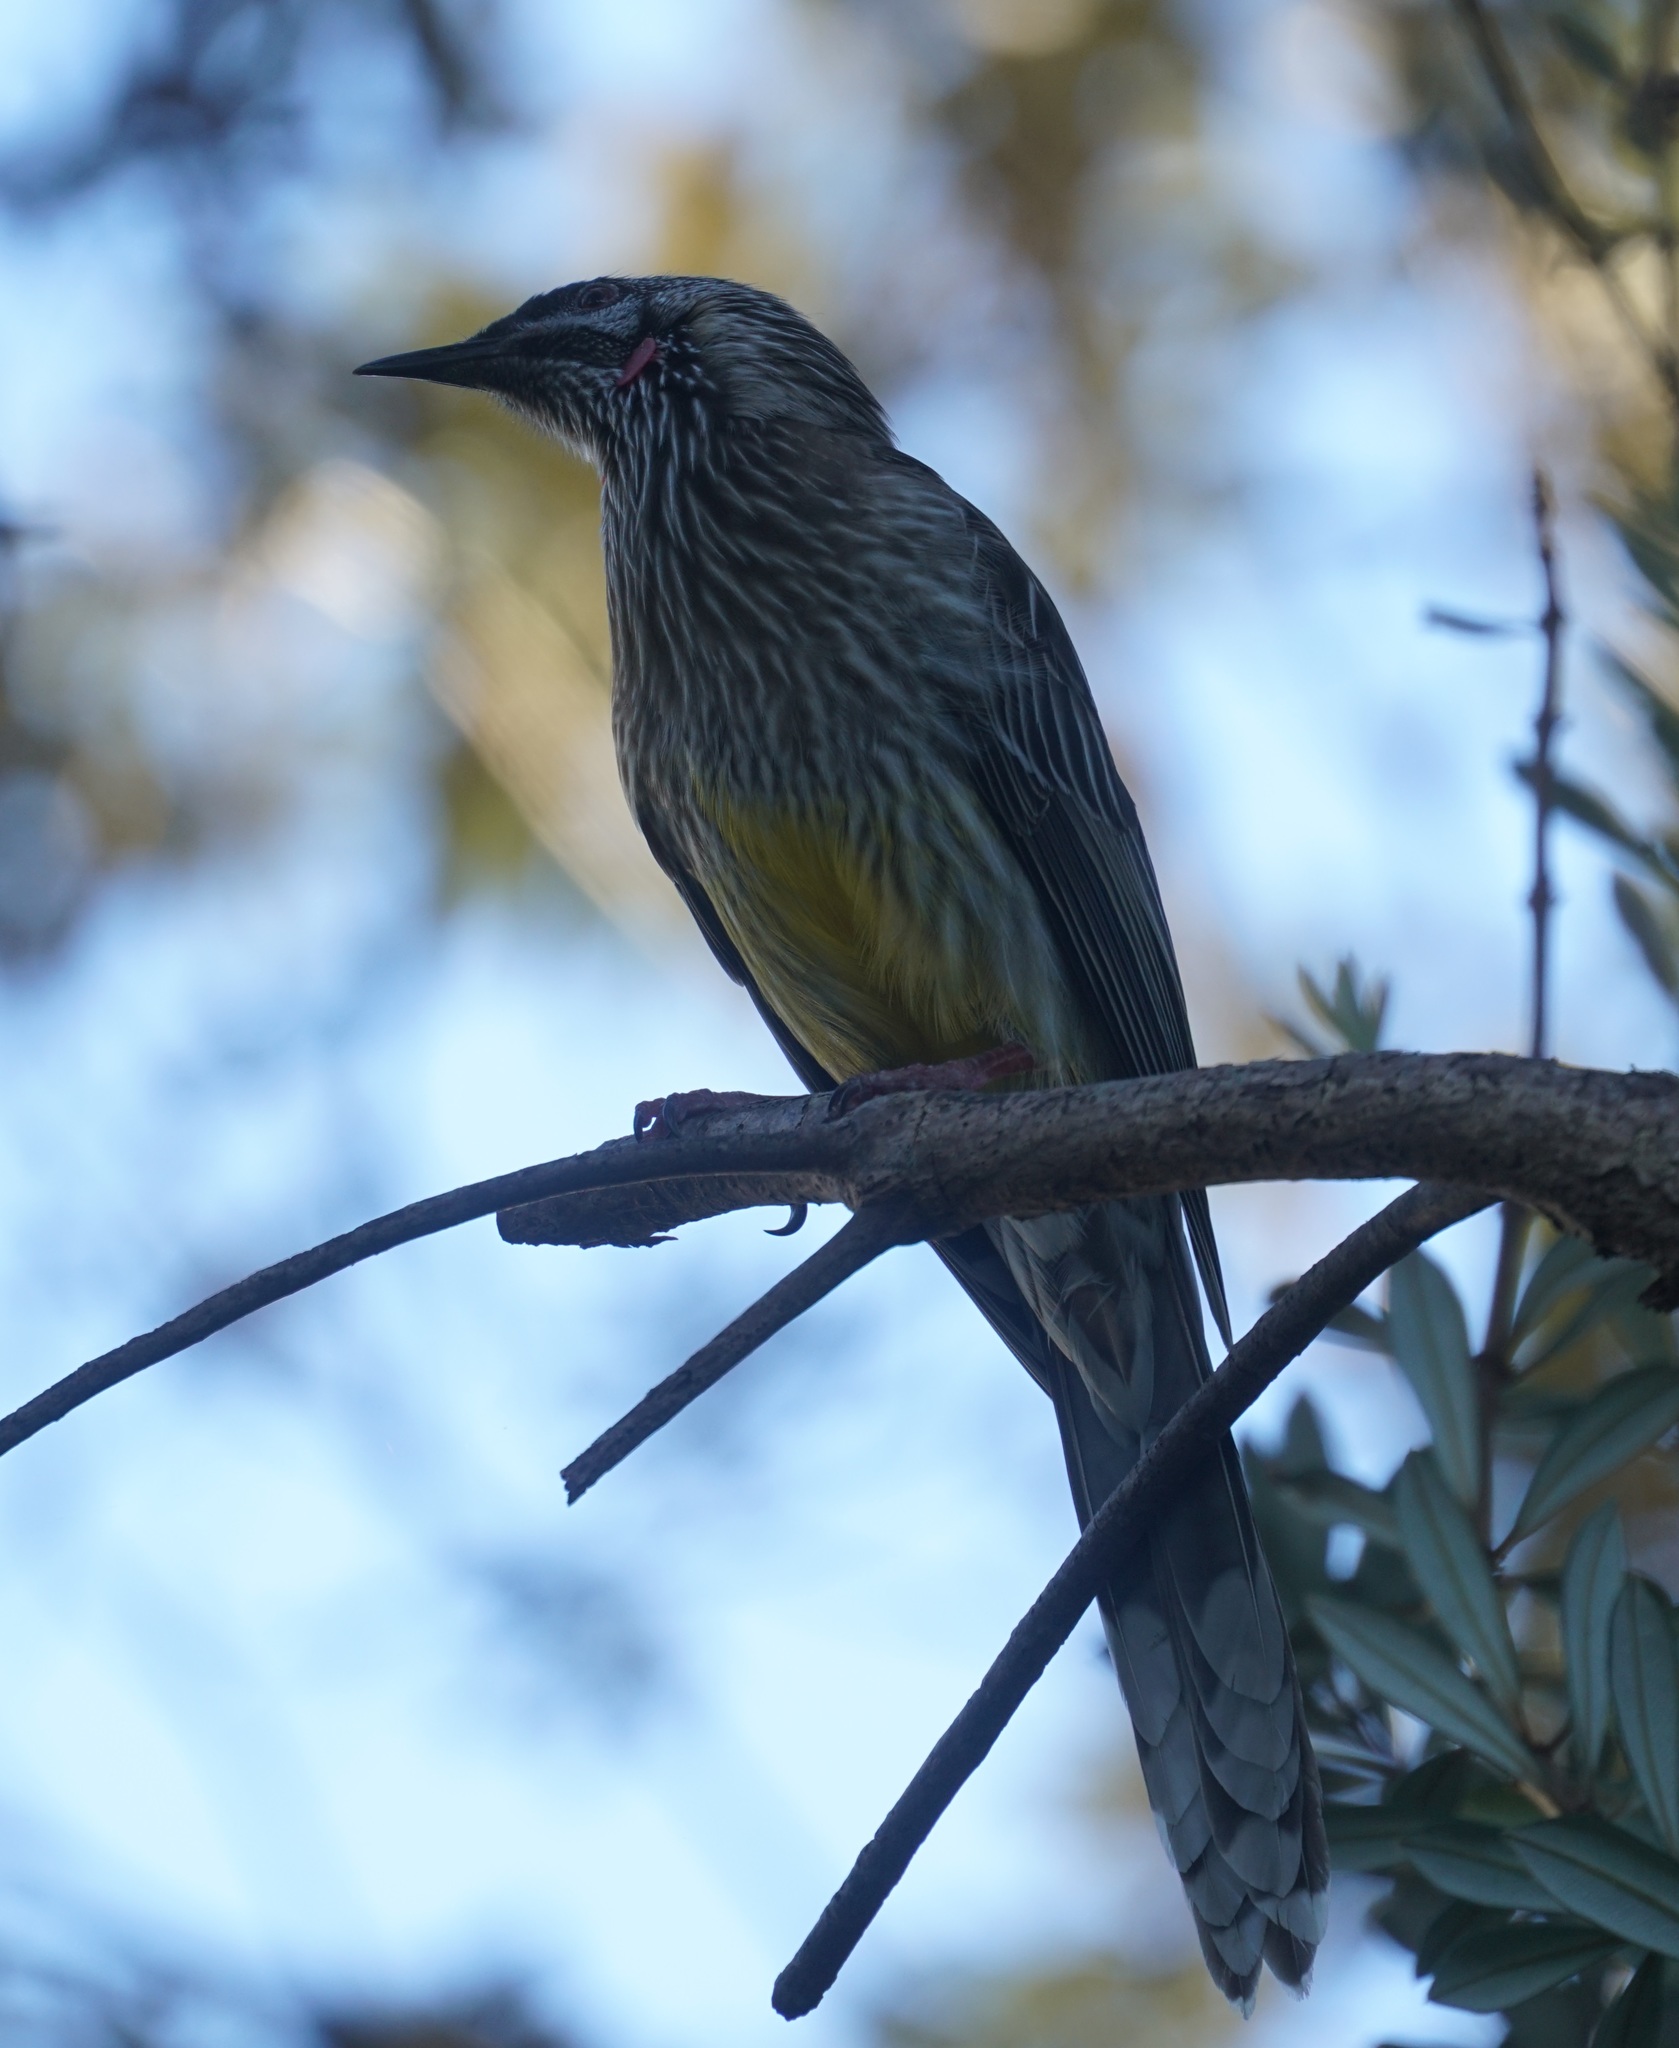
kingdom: Animalia
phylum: Chordata
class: Aves
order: Passeriformes
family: Meliphagidae
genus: Anthochaera
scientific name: Anthochaera carunculata
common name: Red wattlebird
